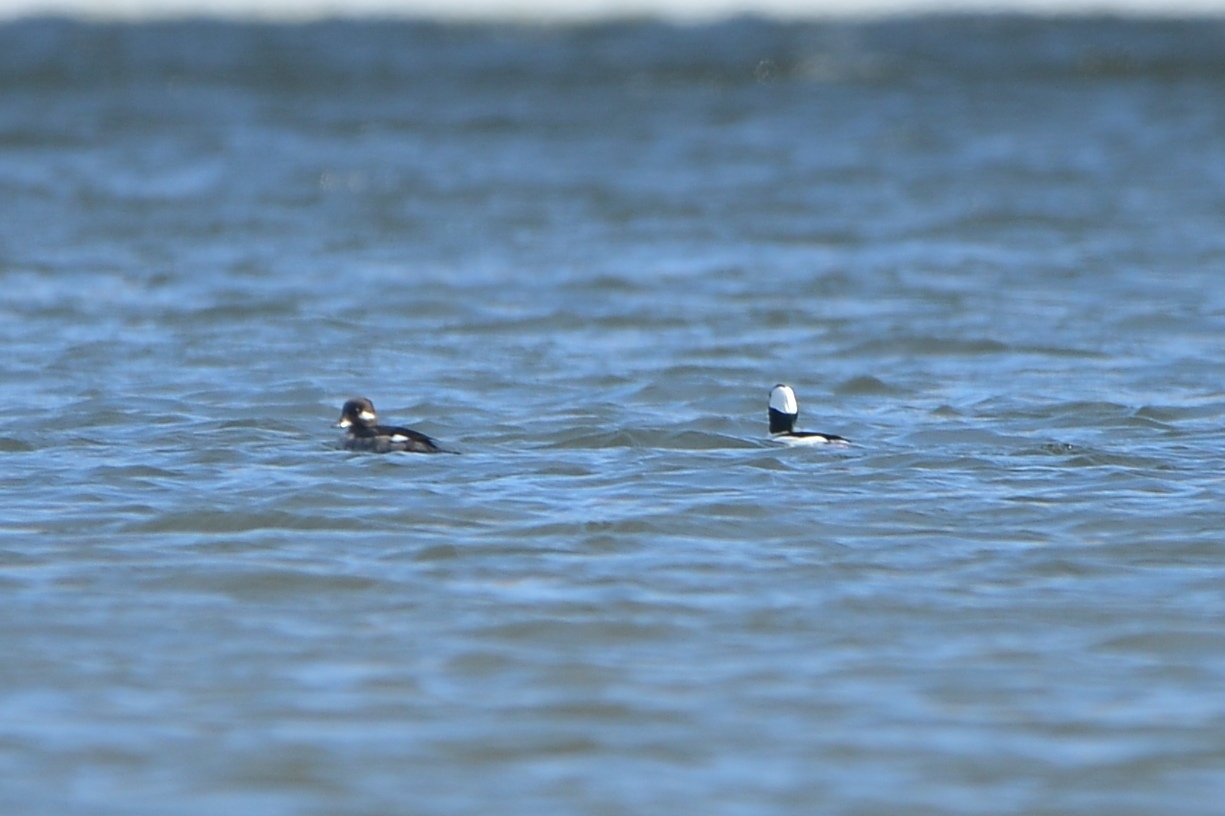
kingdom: Animalia
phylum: Chordata
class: Aves
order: Anseriformes
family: Anatidae
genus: Bucephala
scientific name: Bucephala albeola
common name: Bufflehead
